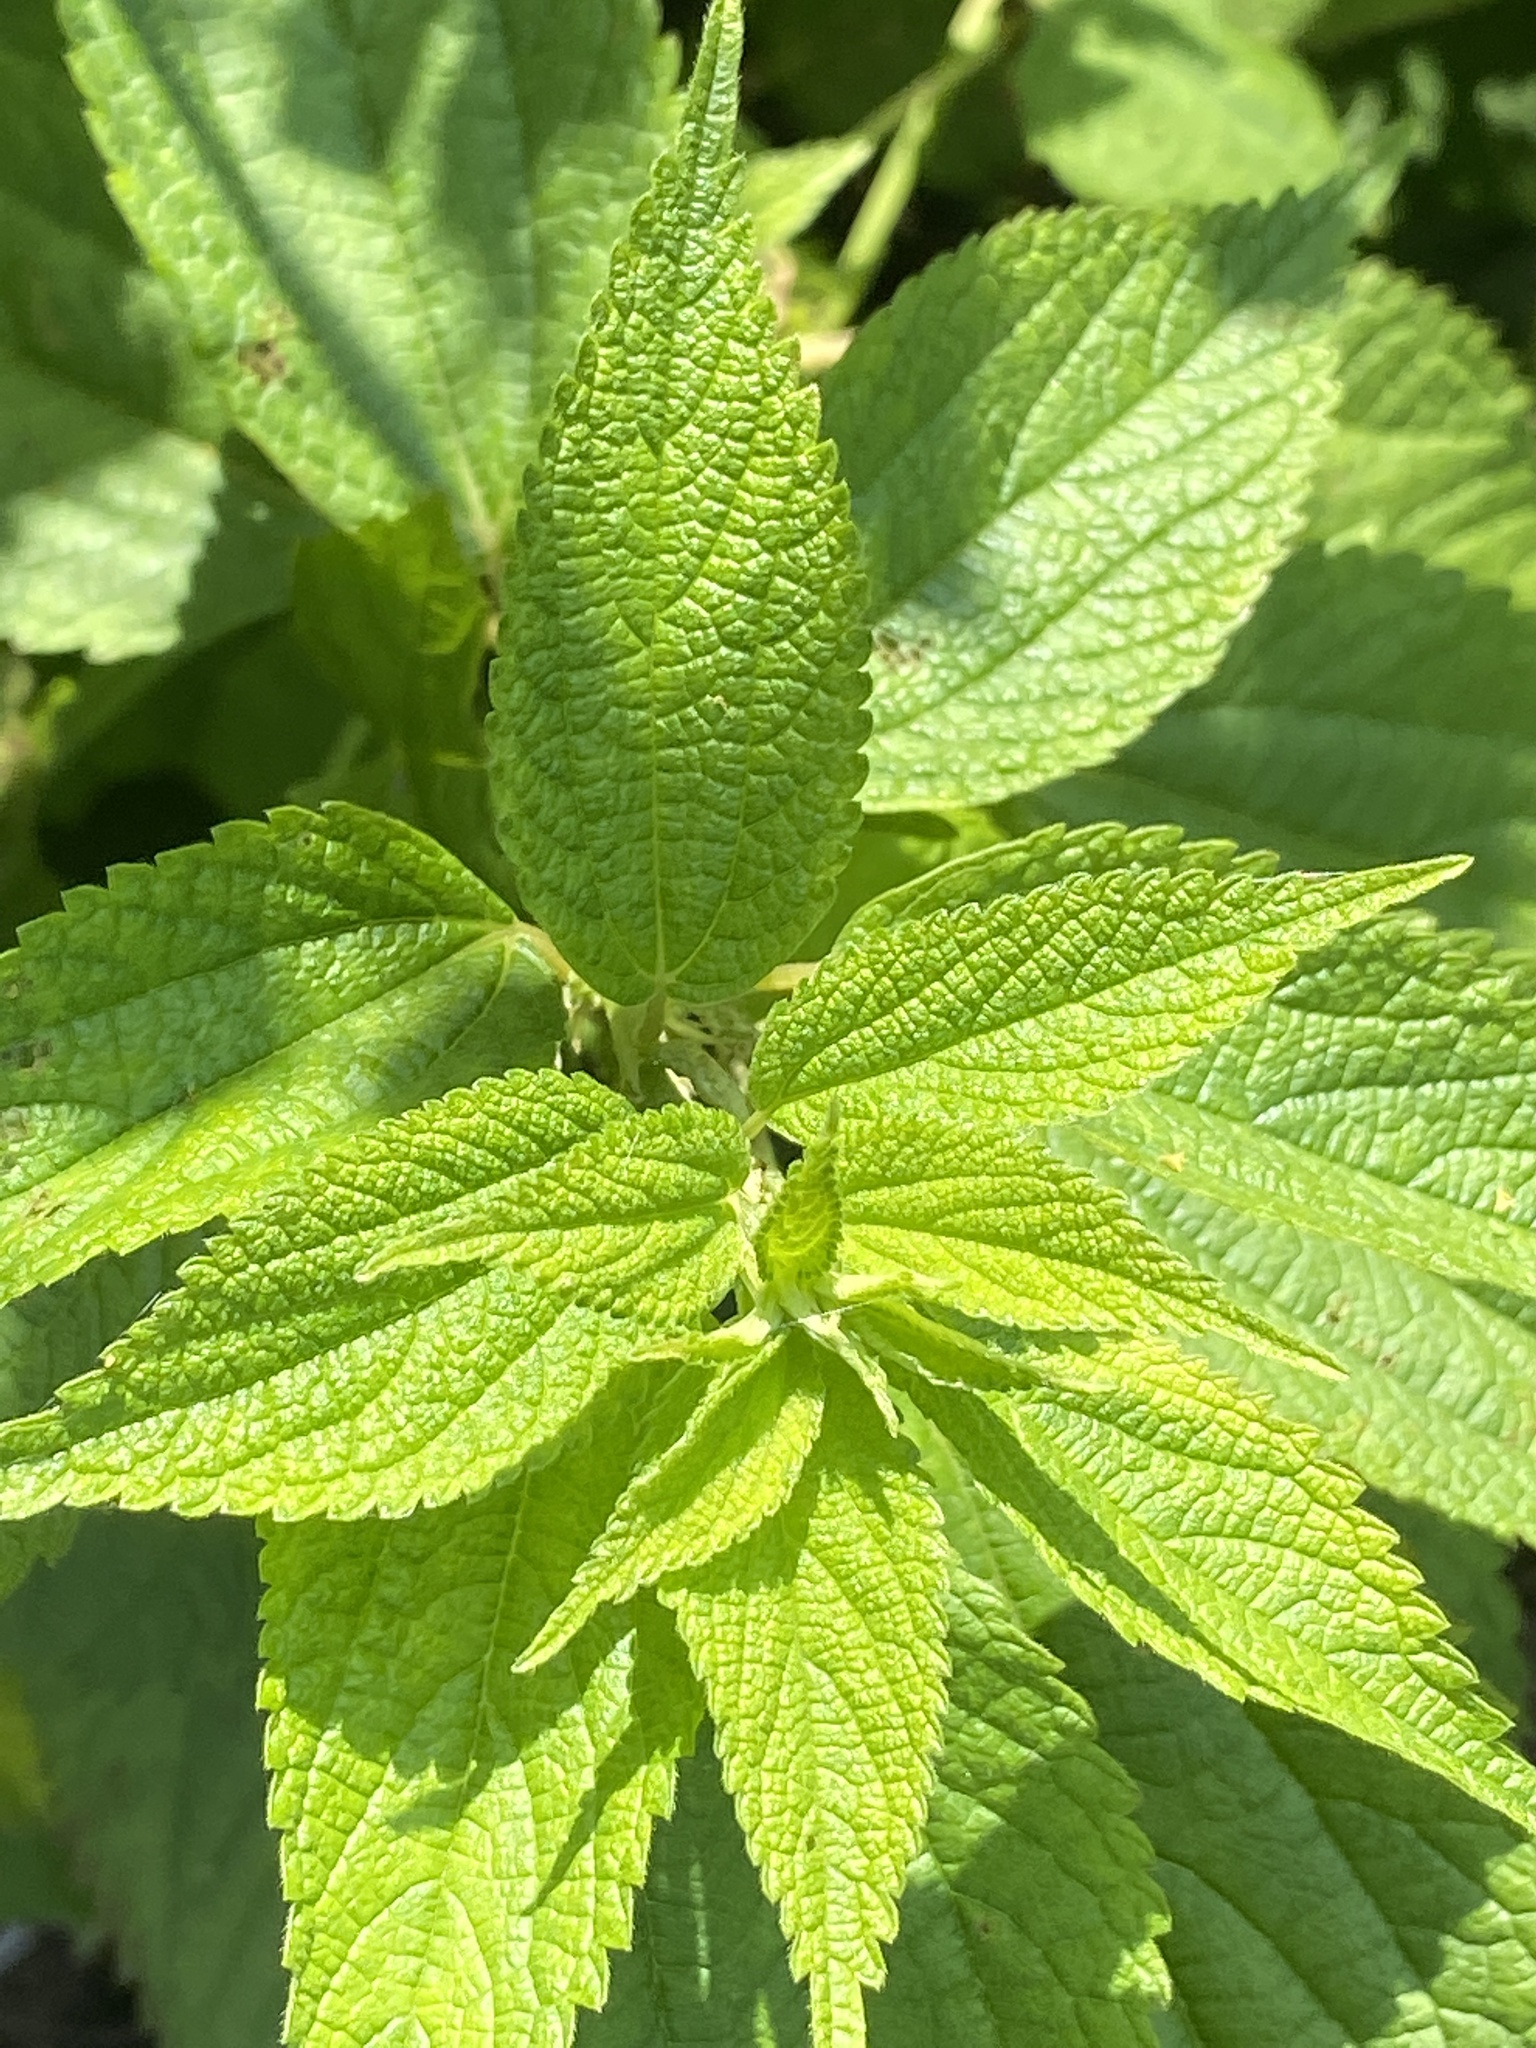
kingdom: Plantae
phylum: Tracheophyta
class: Magnoliopsida
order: Rosales
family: Urticaceae
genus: Boehmeria
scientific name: Boehmeria cylindrica
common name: Bog-hemp
